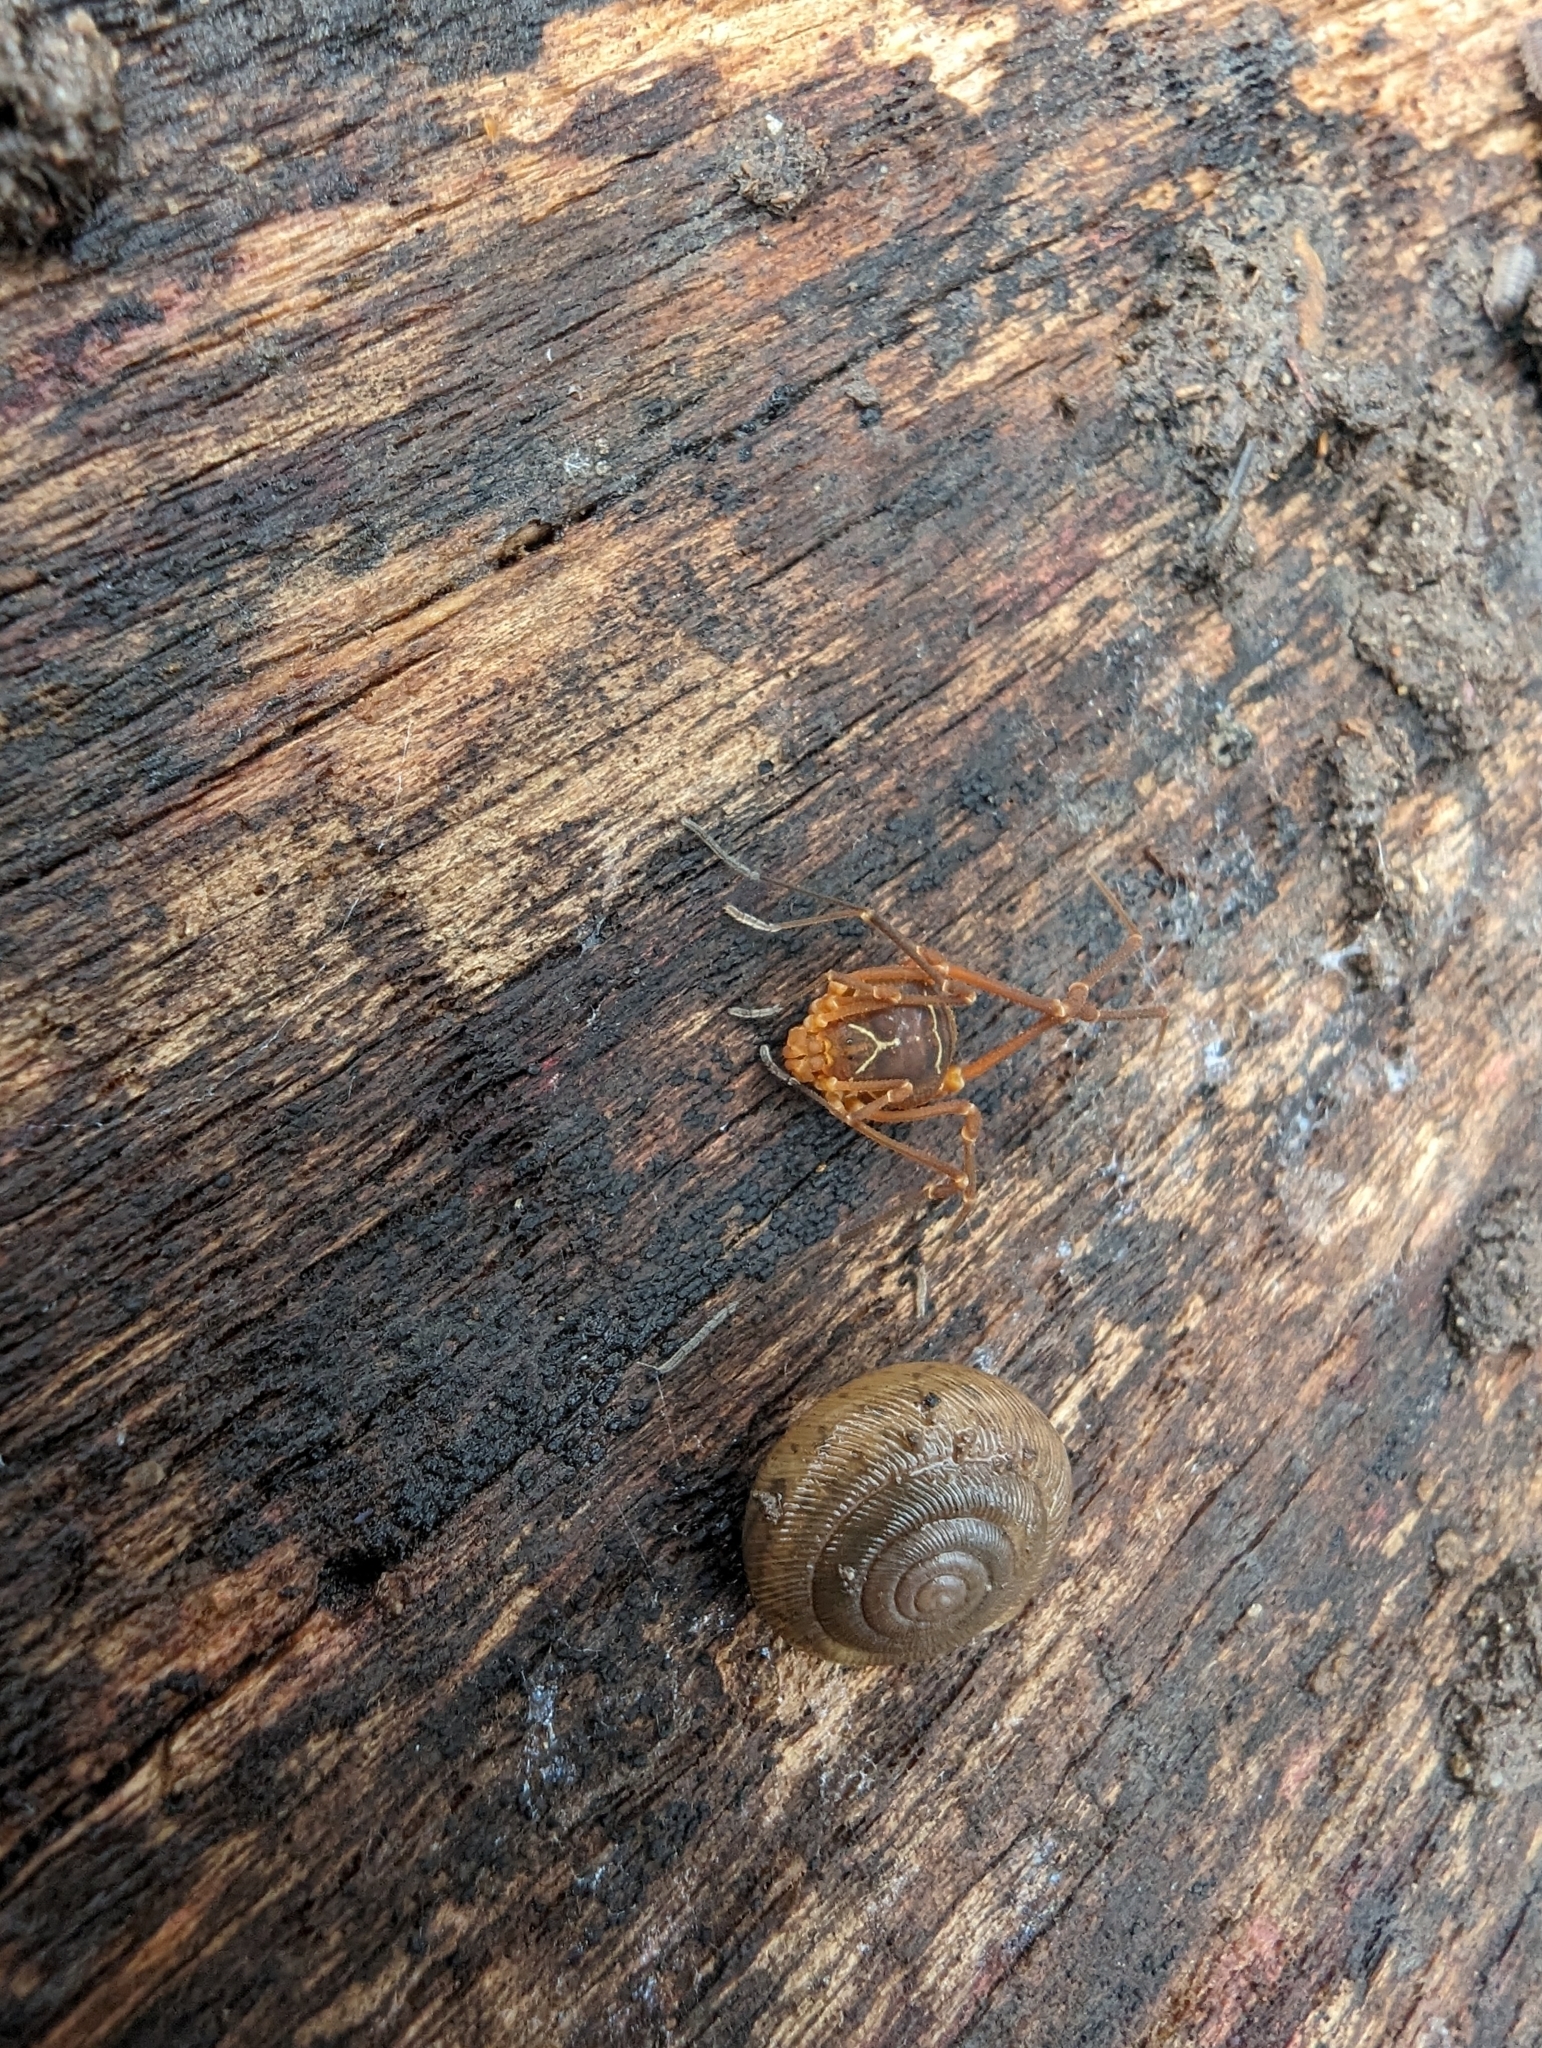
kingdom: Animalia
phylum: Arthropoda
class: Arachnida
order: Opiliones
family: Cosmetidae
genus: Libitioides
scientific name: Libitioides sayi
